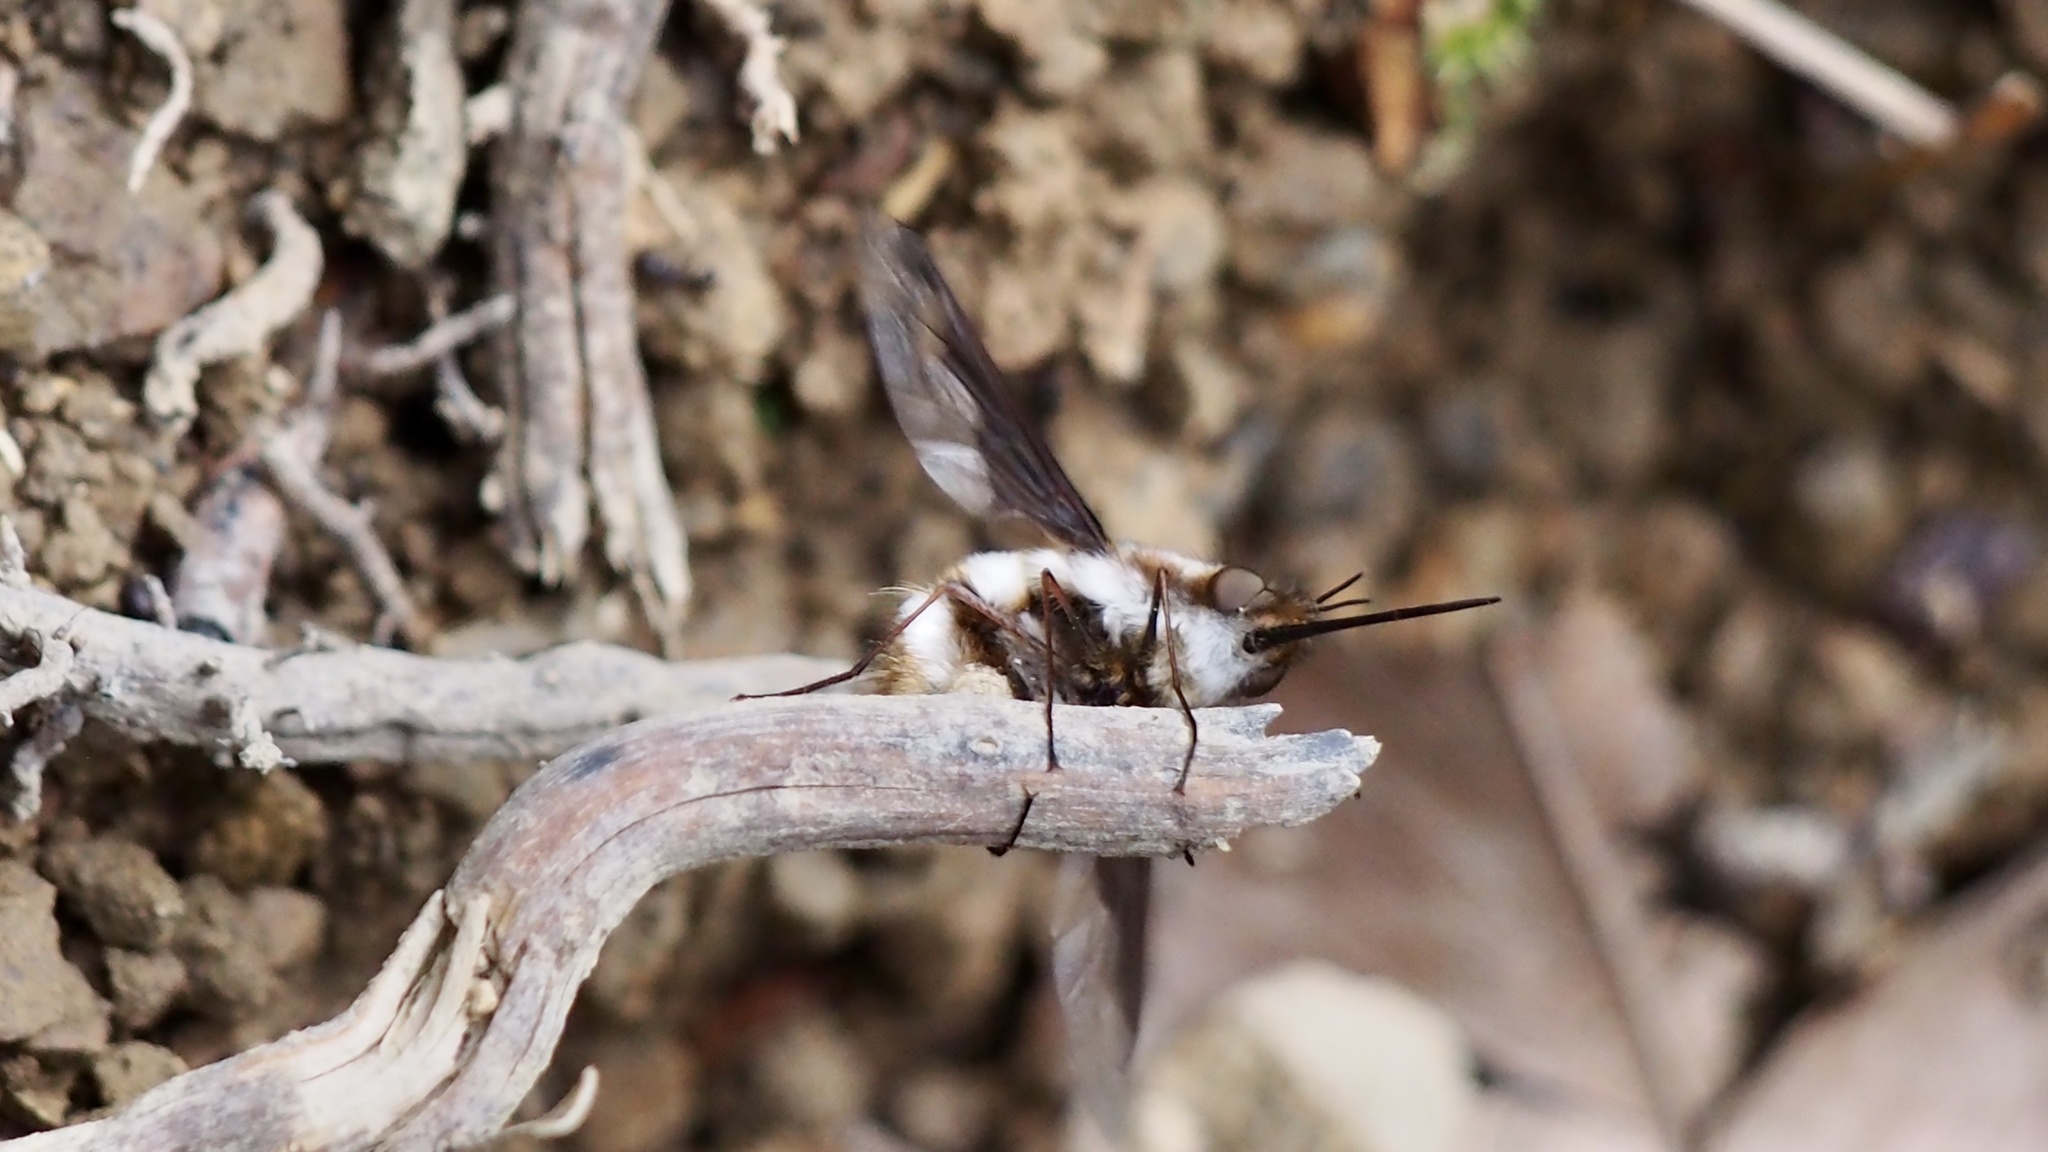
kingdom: Animalia
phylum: Arthropoda
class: Insecta
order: Diptera
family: Bombyliidae
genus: Bombylius
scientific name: Bombylius major
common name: Bee fly
